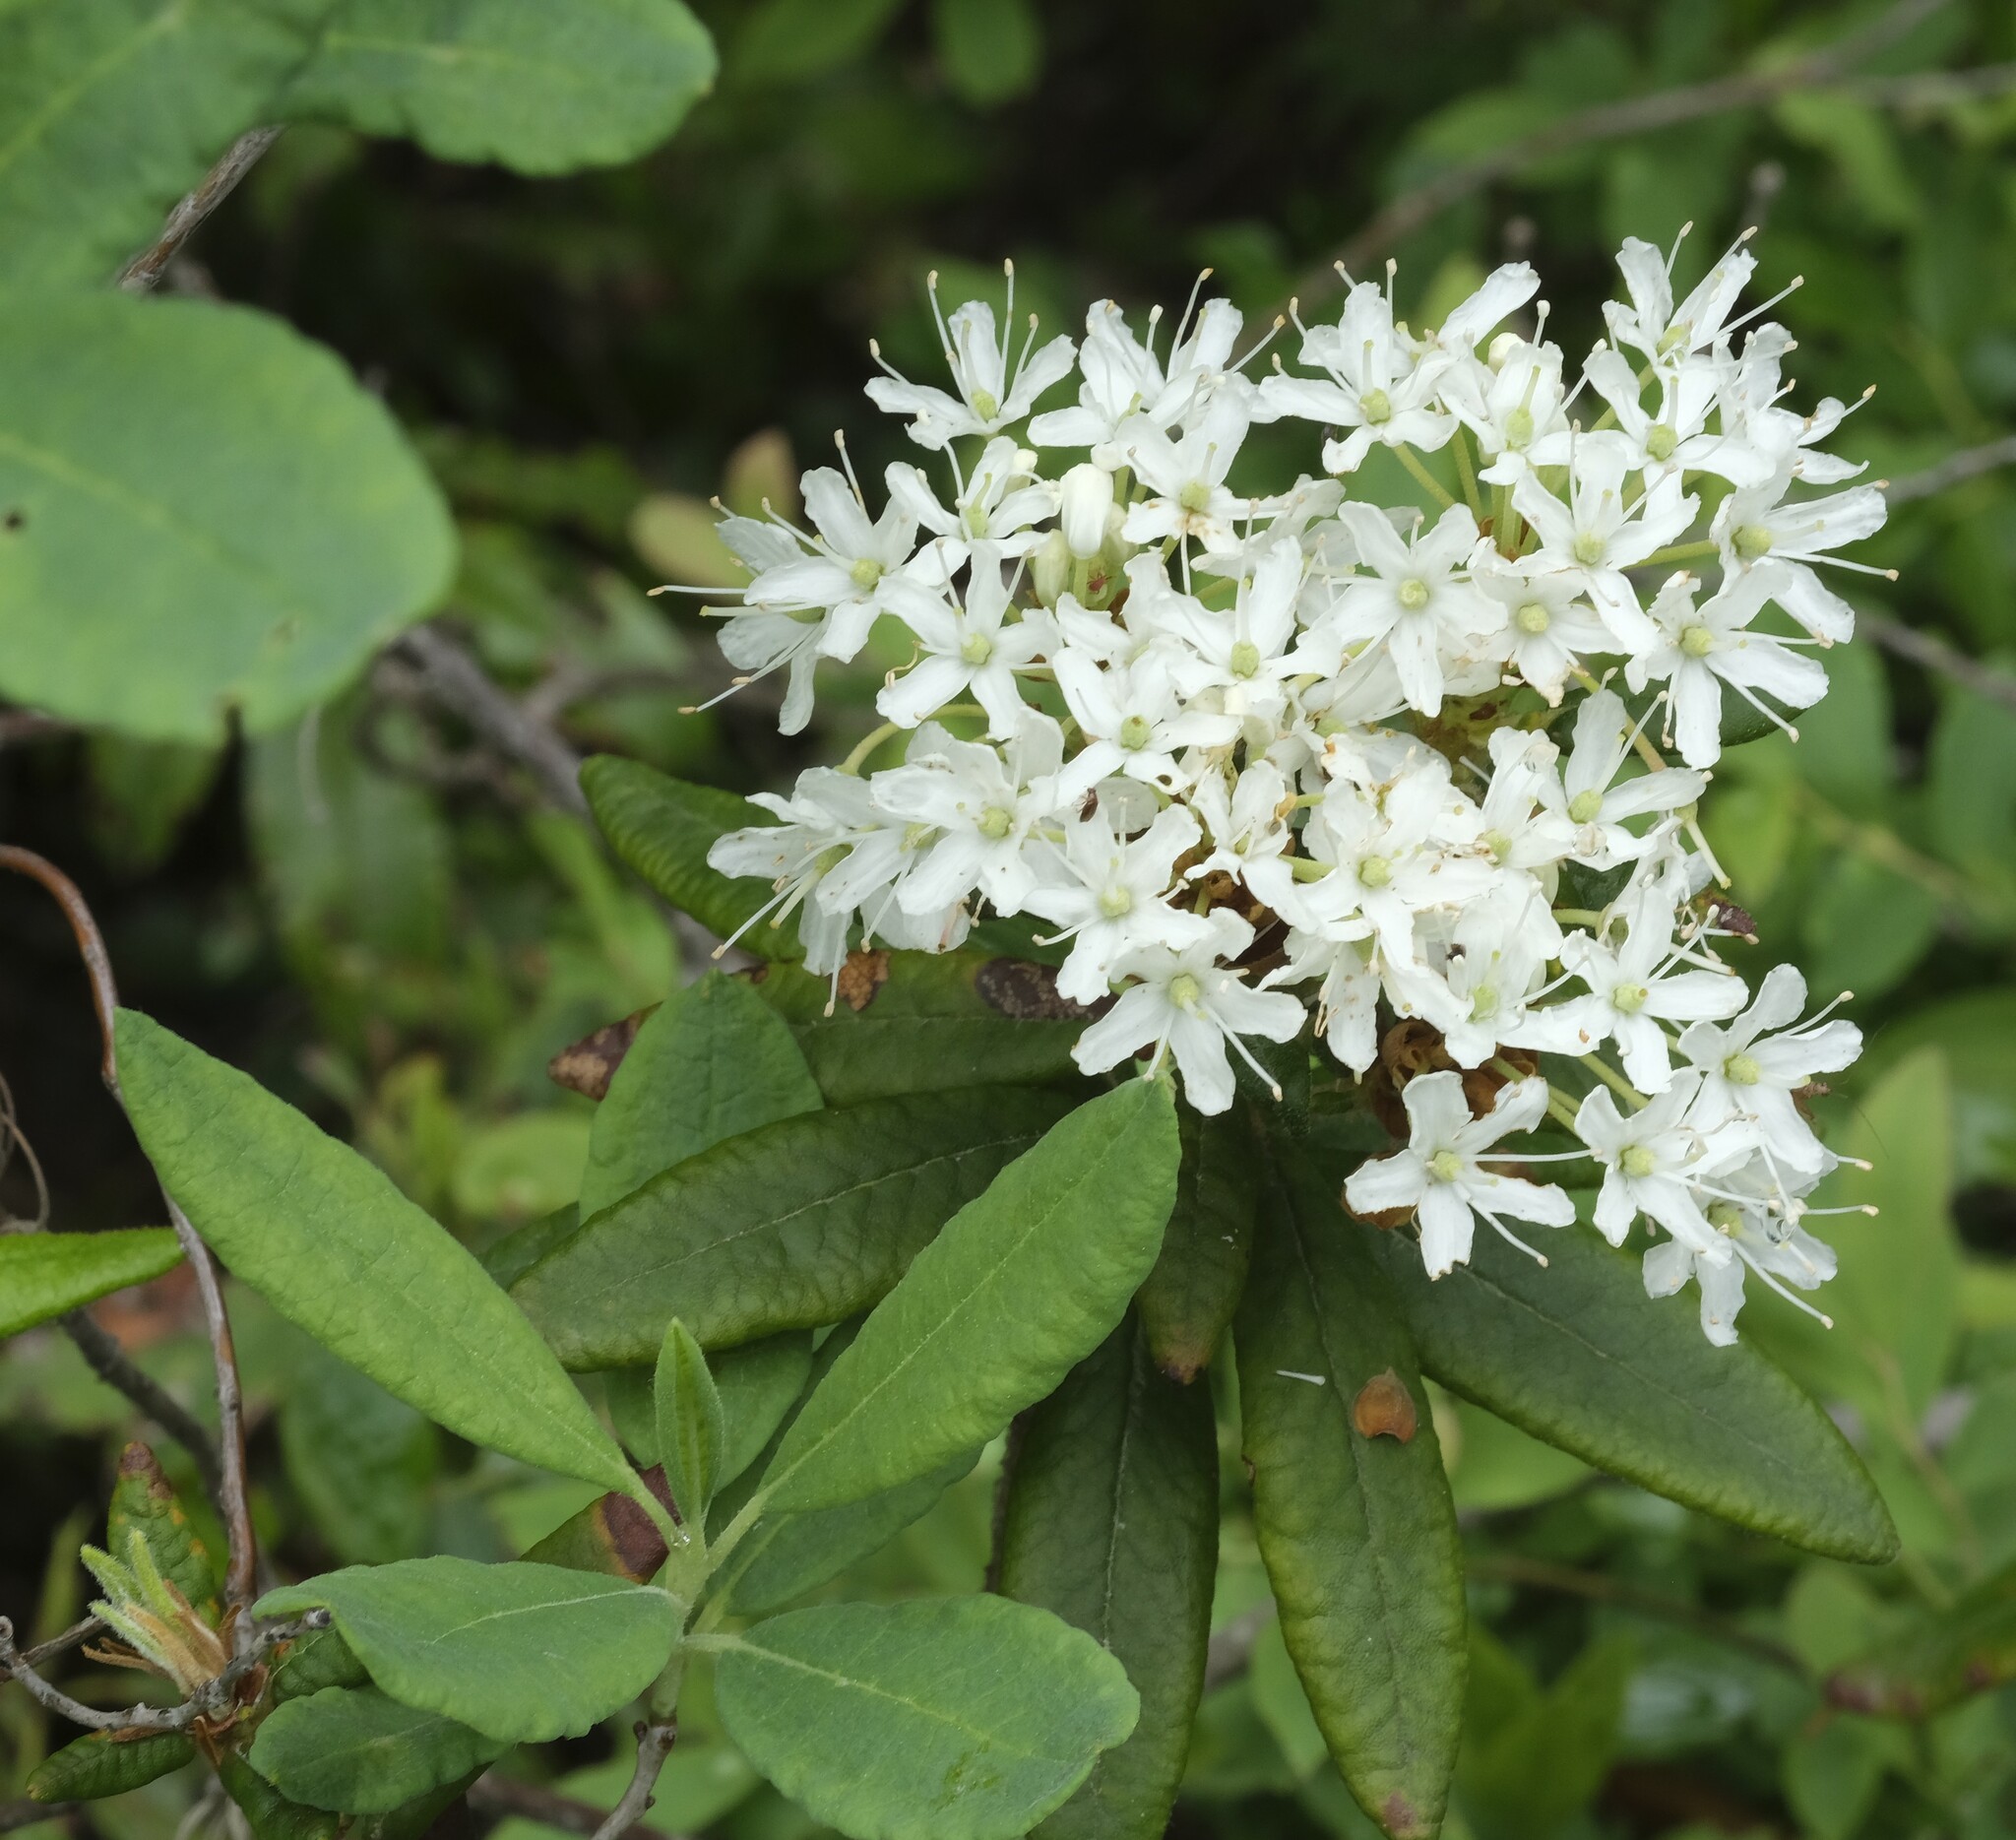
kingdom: Plantae
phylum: Tracheophyta
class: Magnoliopsida
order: Ericales
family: Ericaceae
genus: Rhododendron
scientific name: Rhododendron groenlandicum
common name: Bog labrador tea
